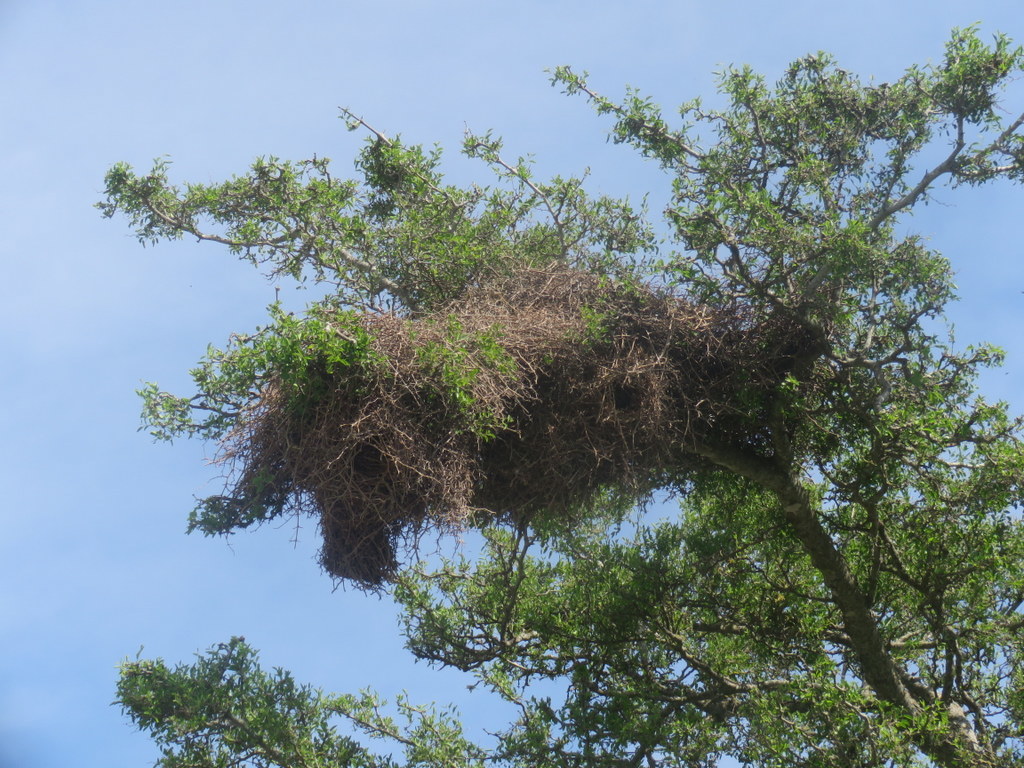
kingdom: Animalia
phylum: Chordata
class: Aves
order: Psittaciformes
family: Psittacidae
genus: Myiopsitta
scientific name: Myiopsitta monachus
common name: Monk parakeet
